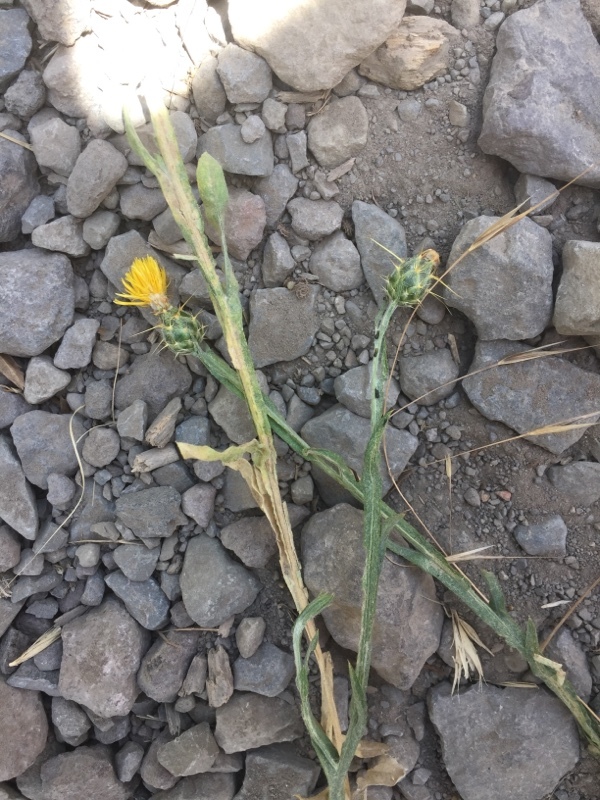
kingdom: Plantae
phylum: Tracheophyta
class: Magnoliopsida
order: Asterales
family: Asteraceae
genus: Centaurea
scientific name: Centaurea solstitialis
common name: Yellow star-thistle
